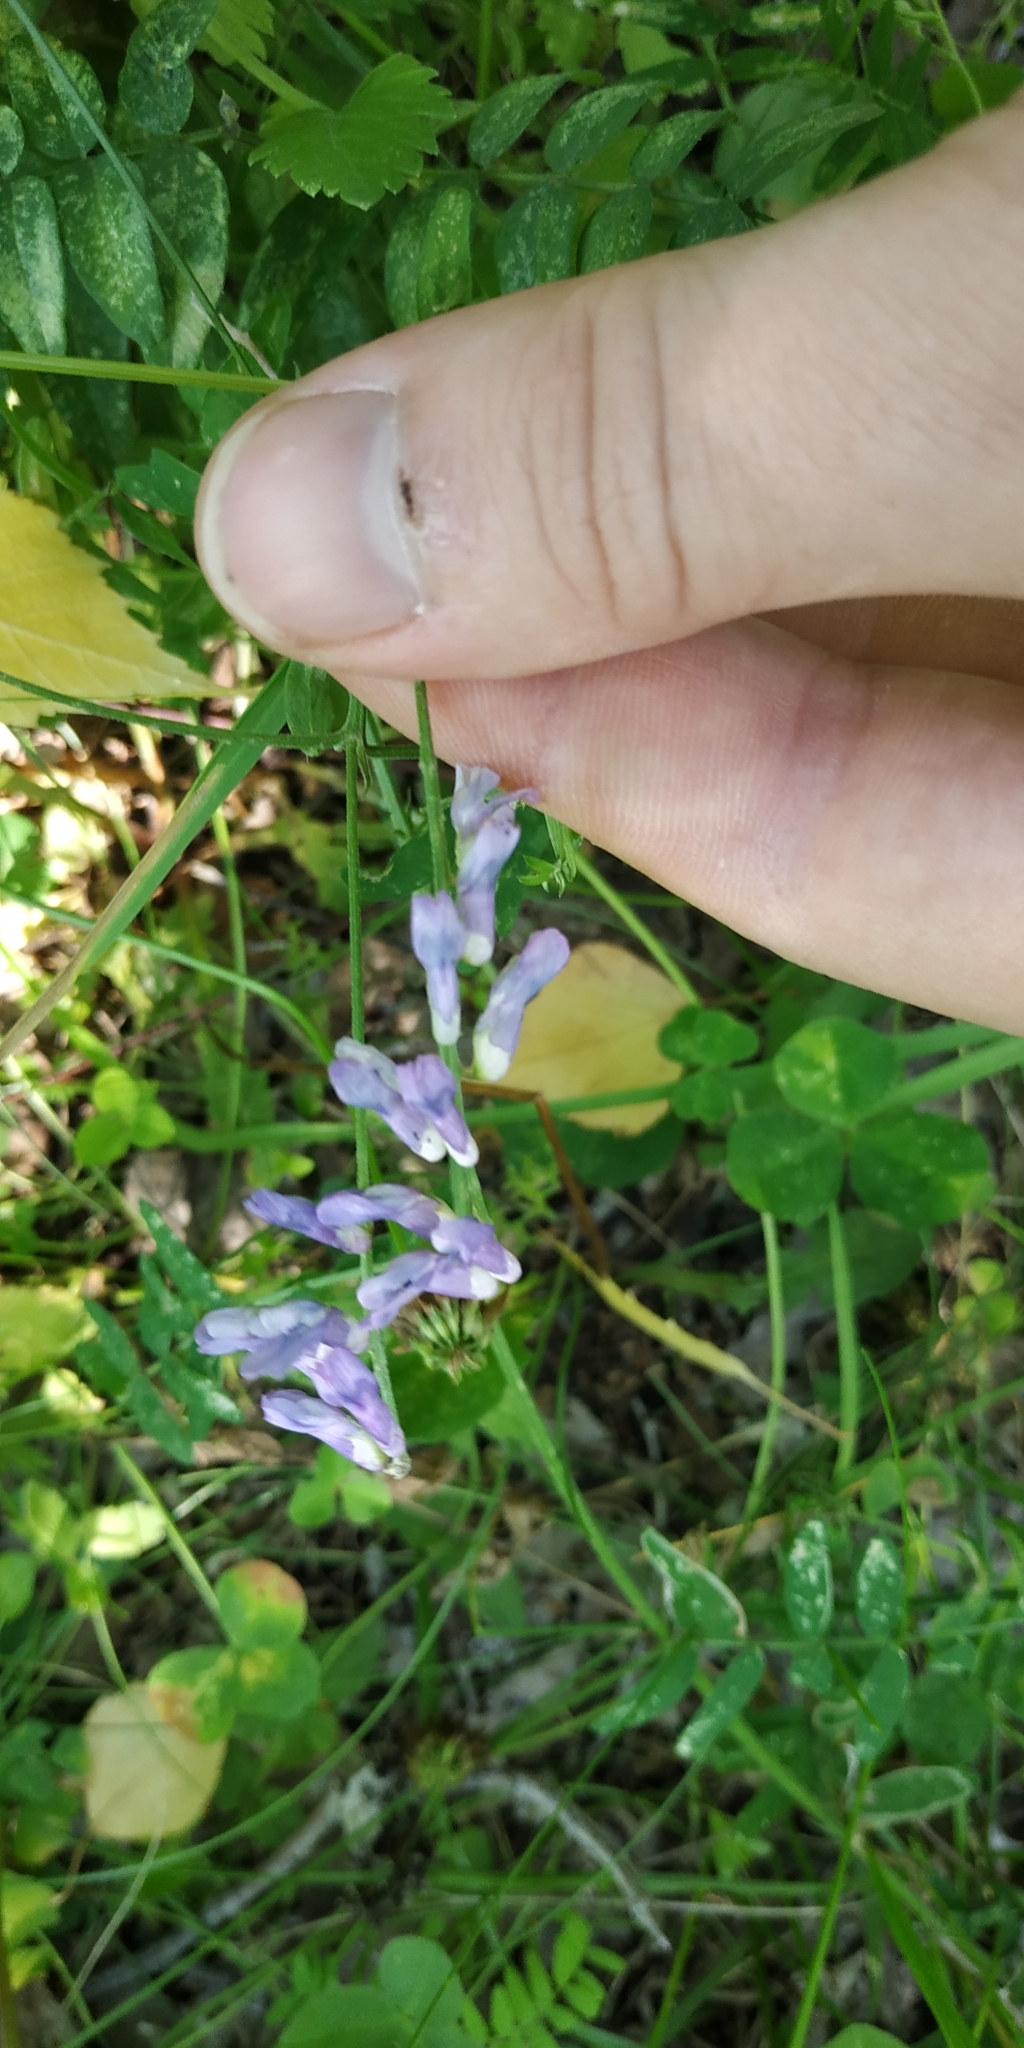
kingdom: Plantae
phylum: Tracheophyta
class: Magnoliopsida
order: Fabales
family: Fabaceae
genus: Vicia
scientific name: Vicia cracca
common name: Bird vetch
